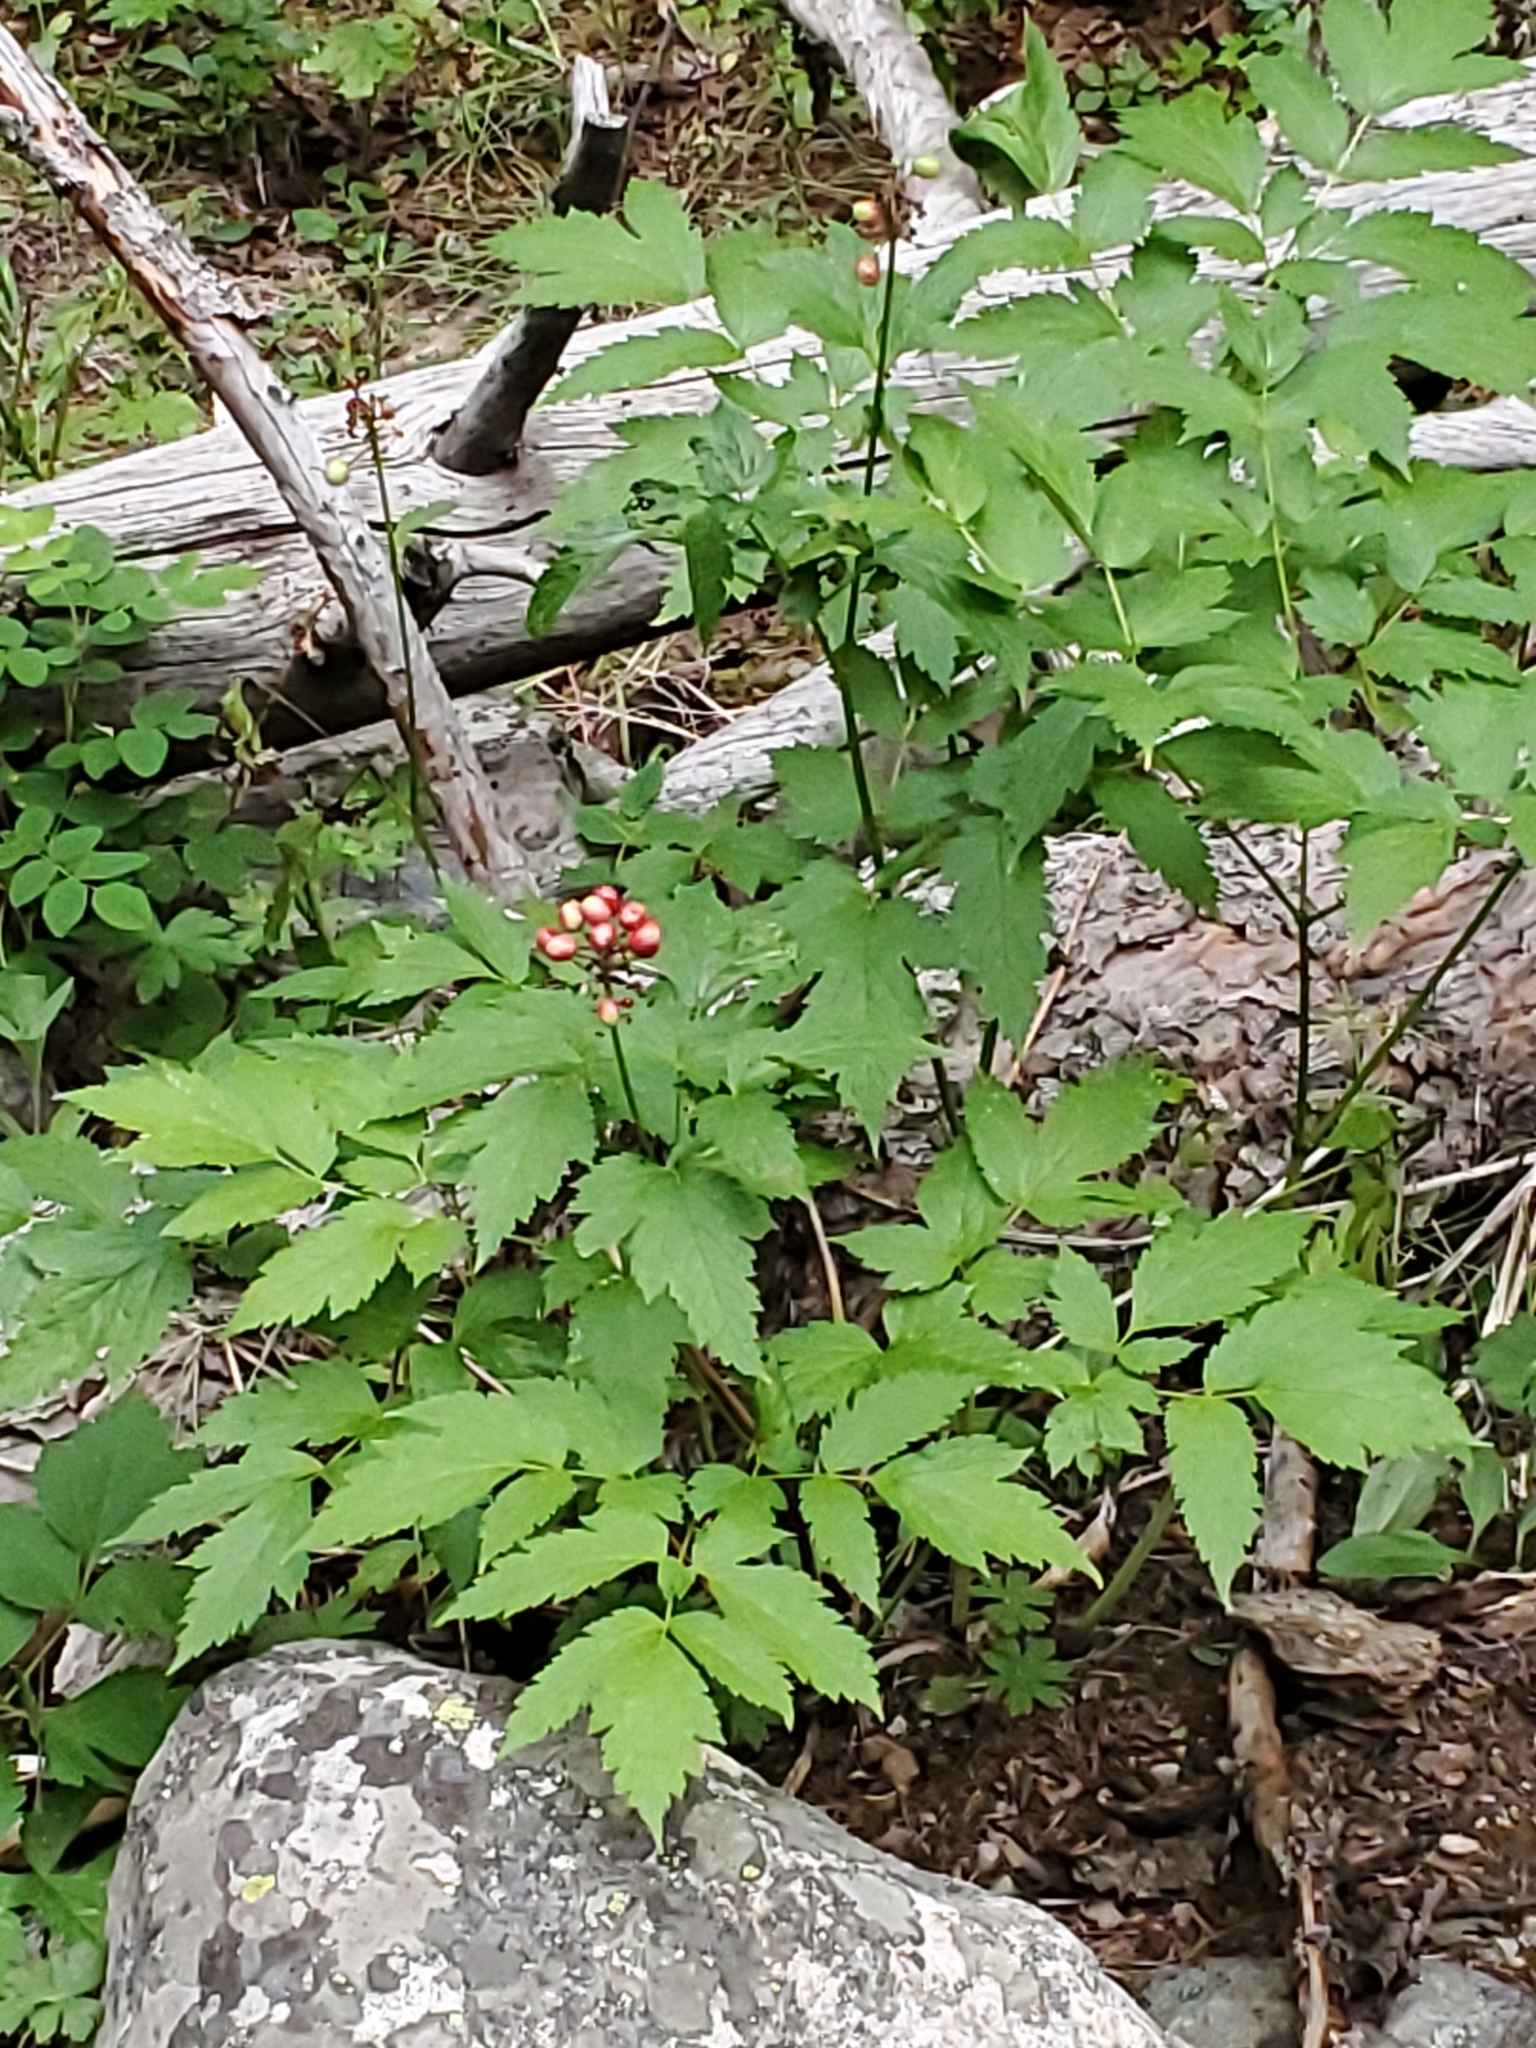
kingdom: Plantae
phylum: Tracheophyta
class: Magnoliopsida
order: Ranunculales
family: Ranunculaceae
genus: Actaea
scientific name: Actaea rubra
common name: Red baneberry
